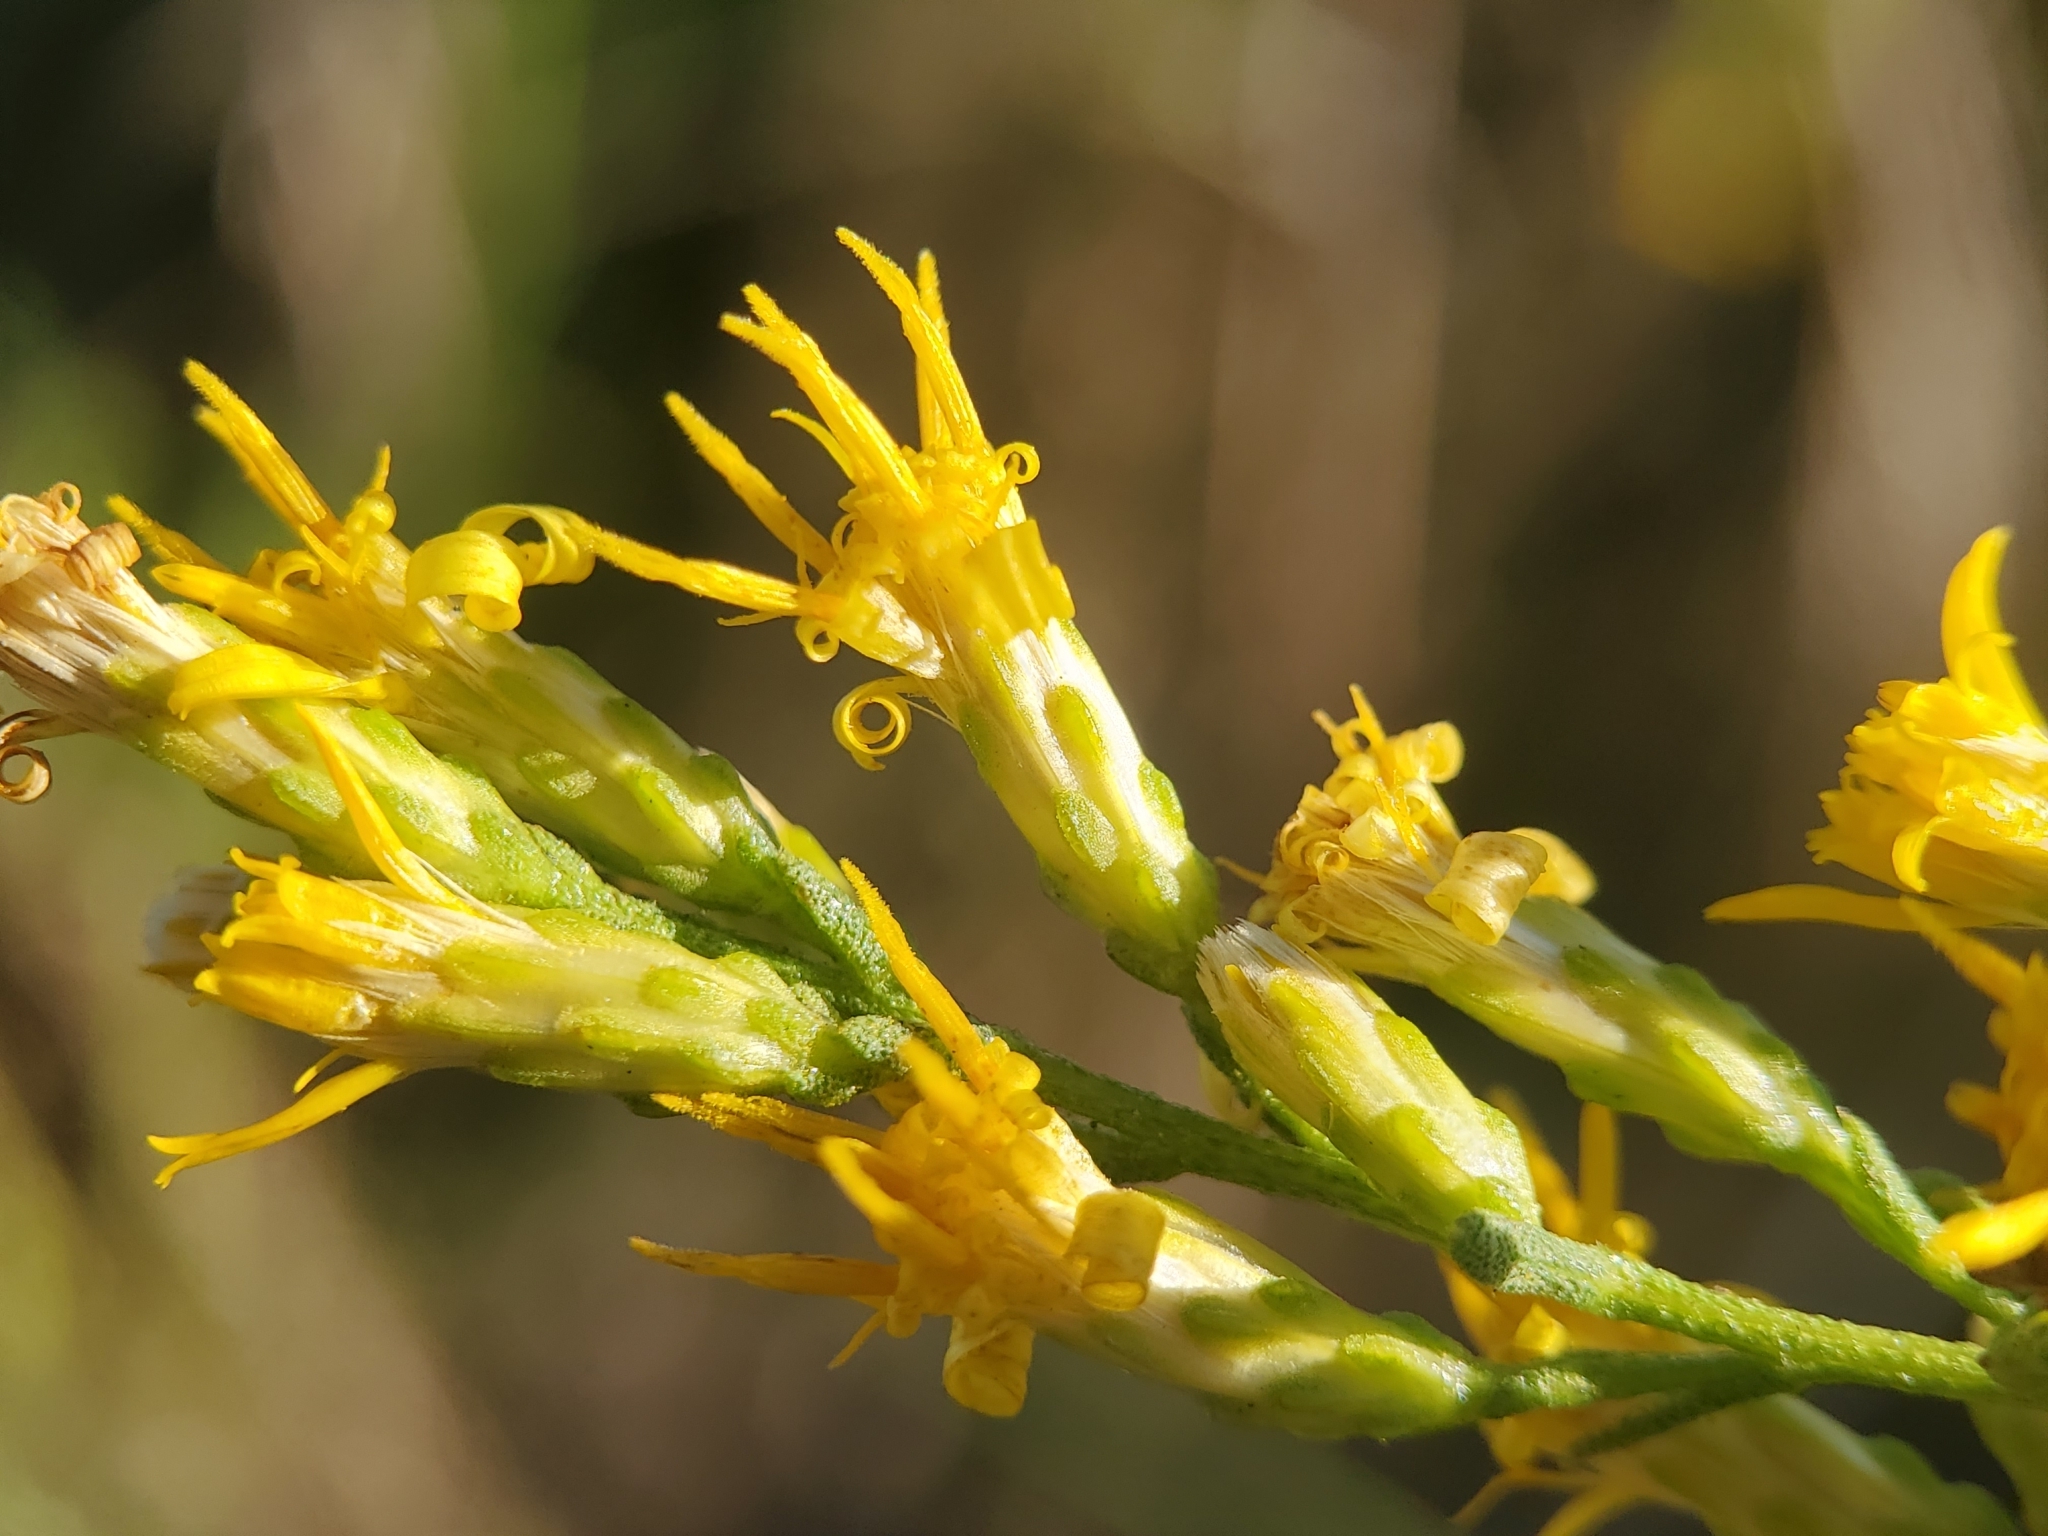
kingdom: Plantae
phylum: Tracheophyta
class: Magnoliopsida
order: Asterales
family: Asteraceae
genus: Ericameria
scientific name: Ericameria palmeri
